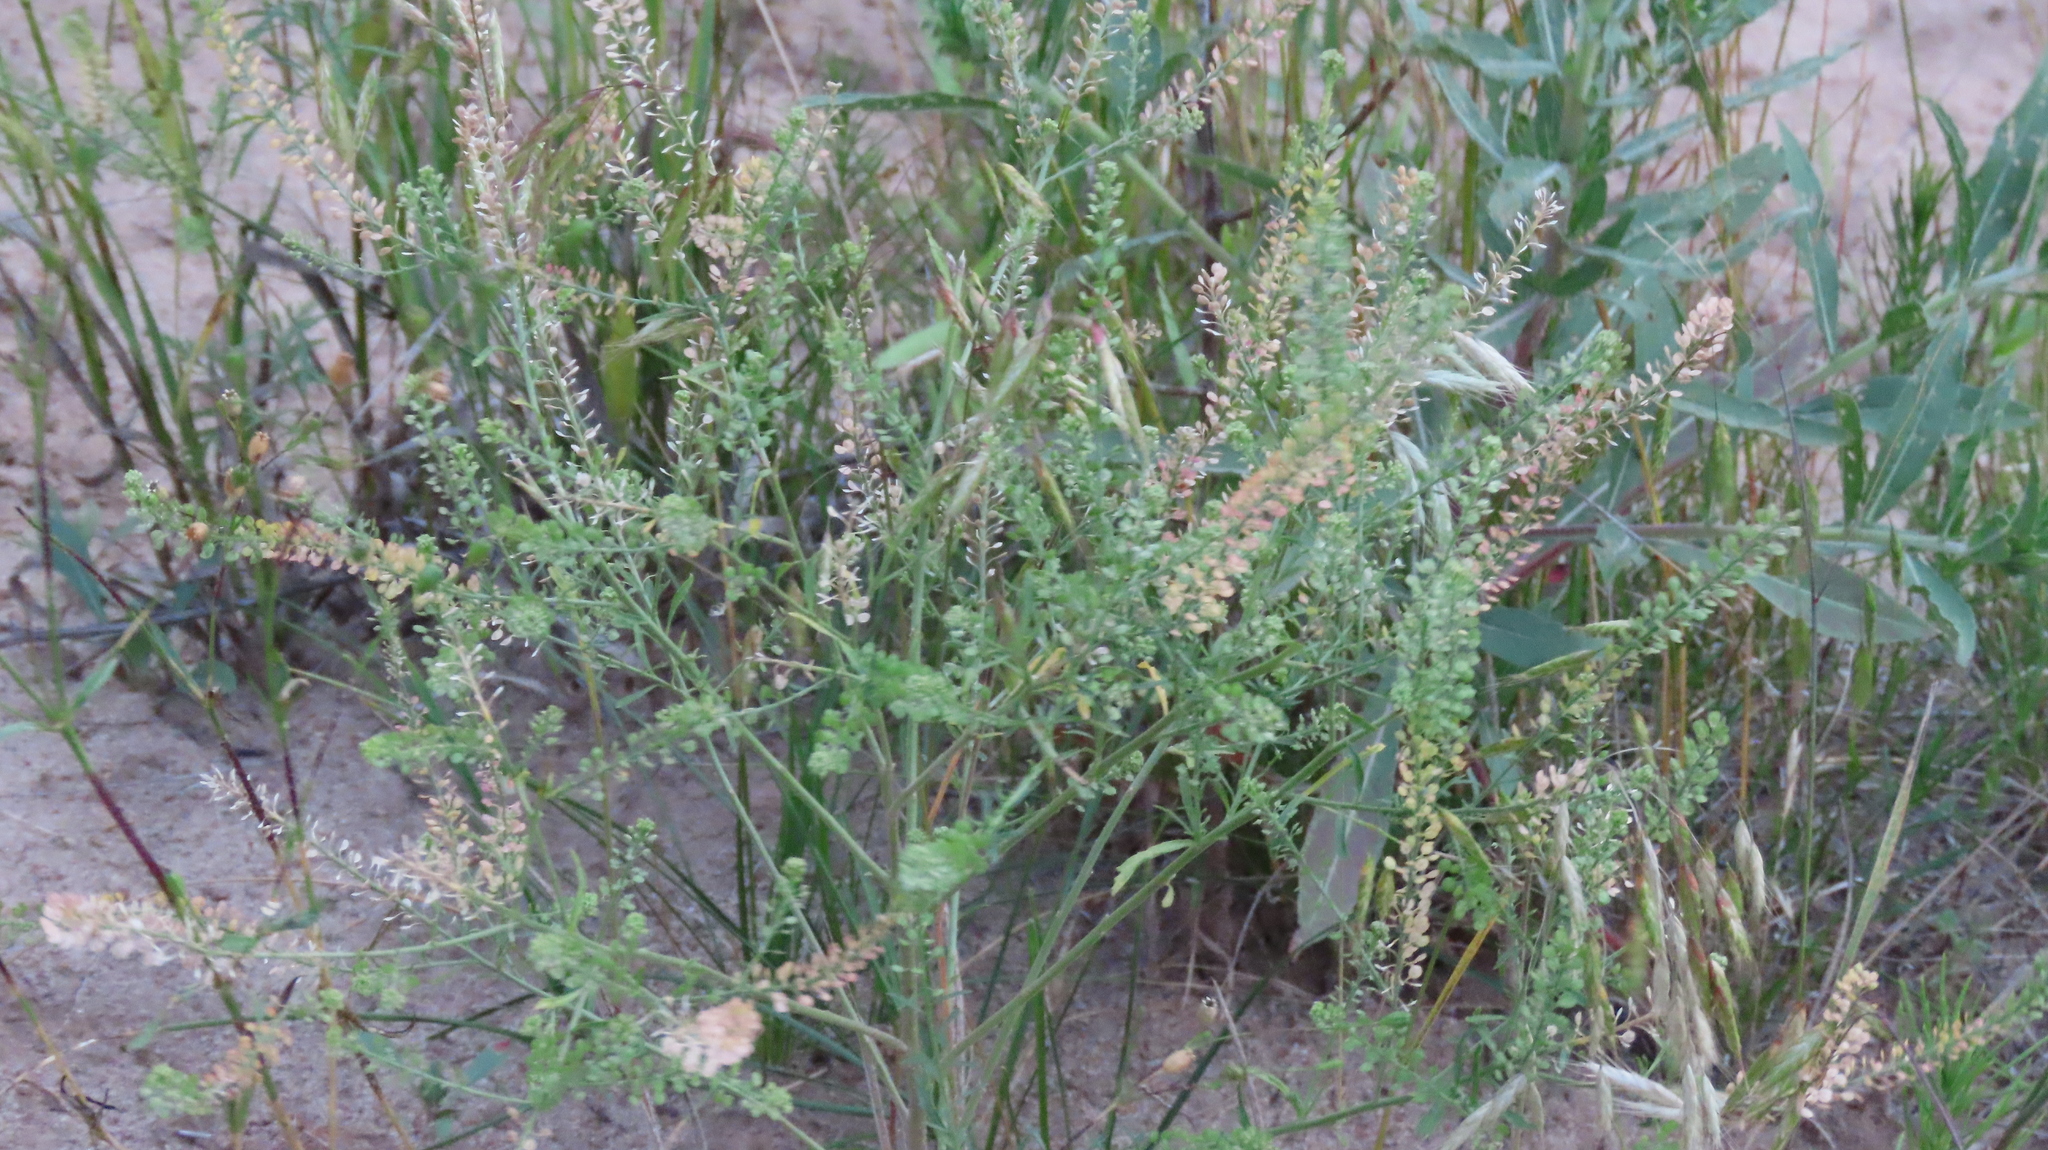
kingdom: Plantae
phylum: Tracheophyta
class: Magnoliopsida
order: Brassicales
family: Brassicaceae
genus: Lepidium
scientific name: Lepidium densiflorum
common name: Miner's pepperwort
